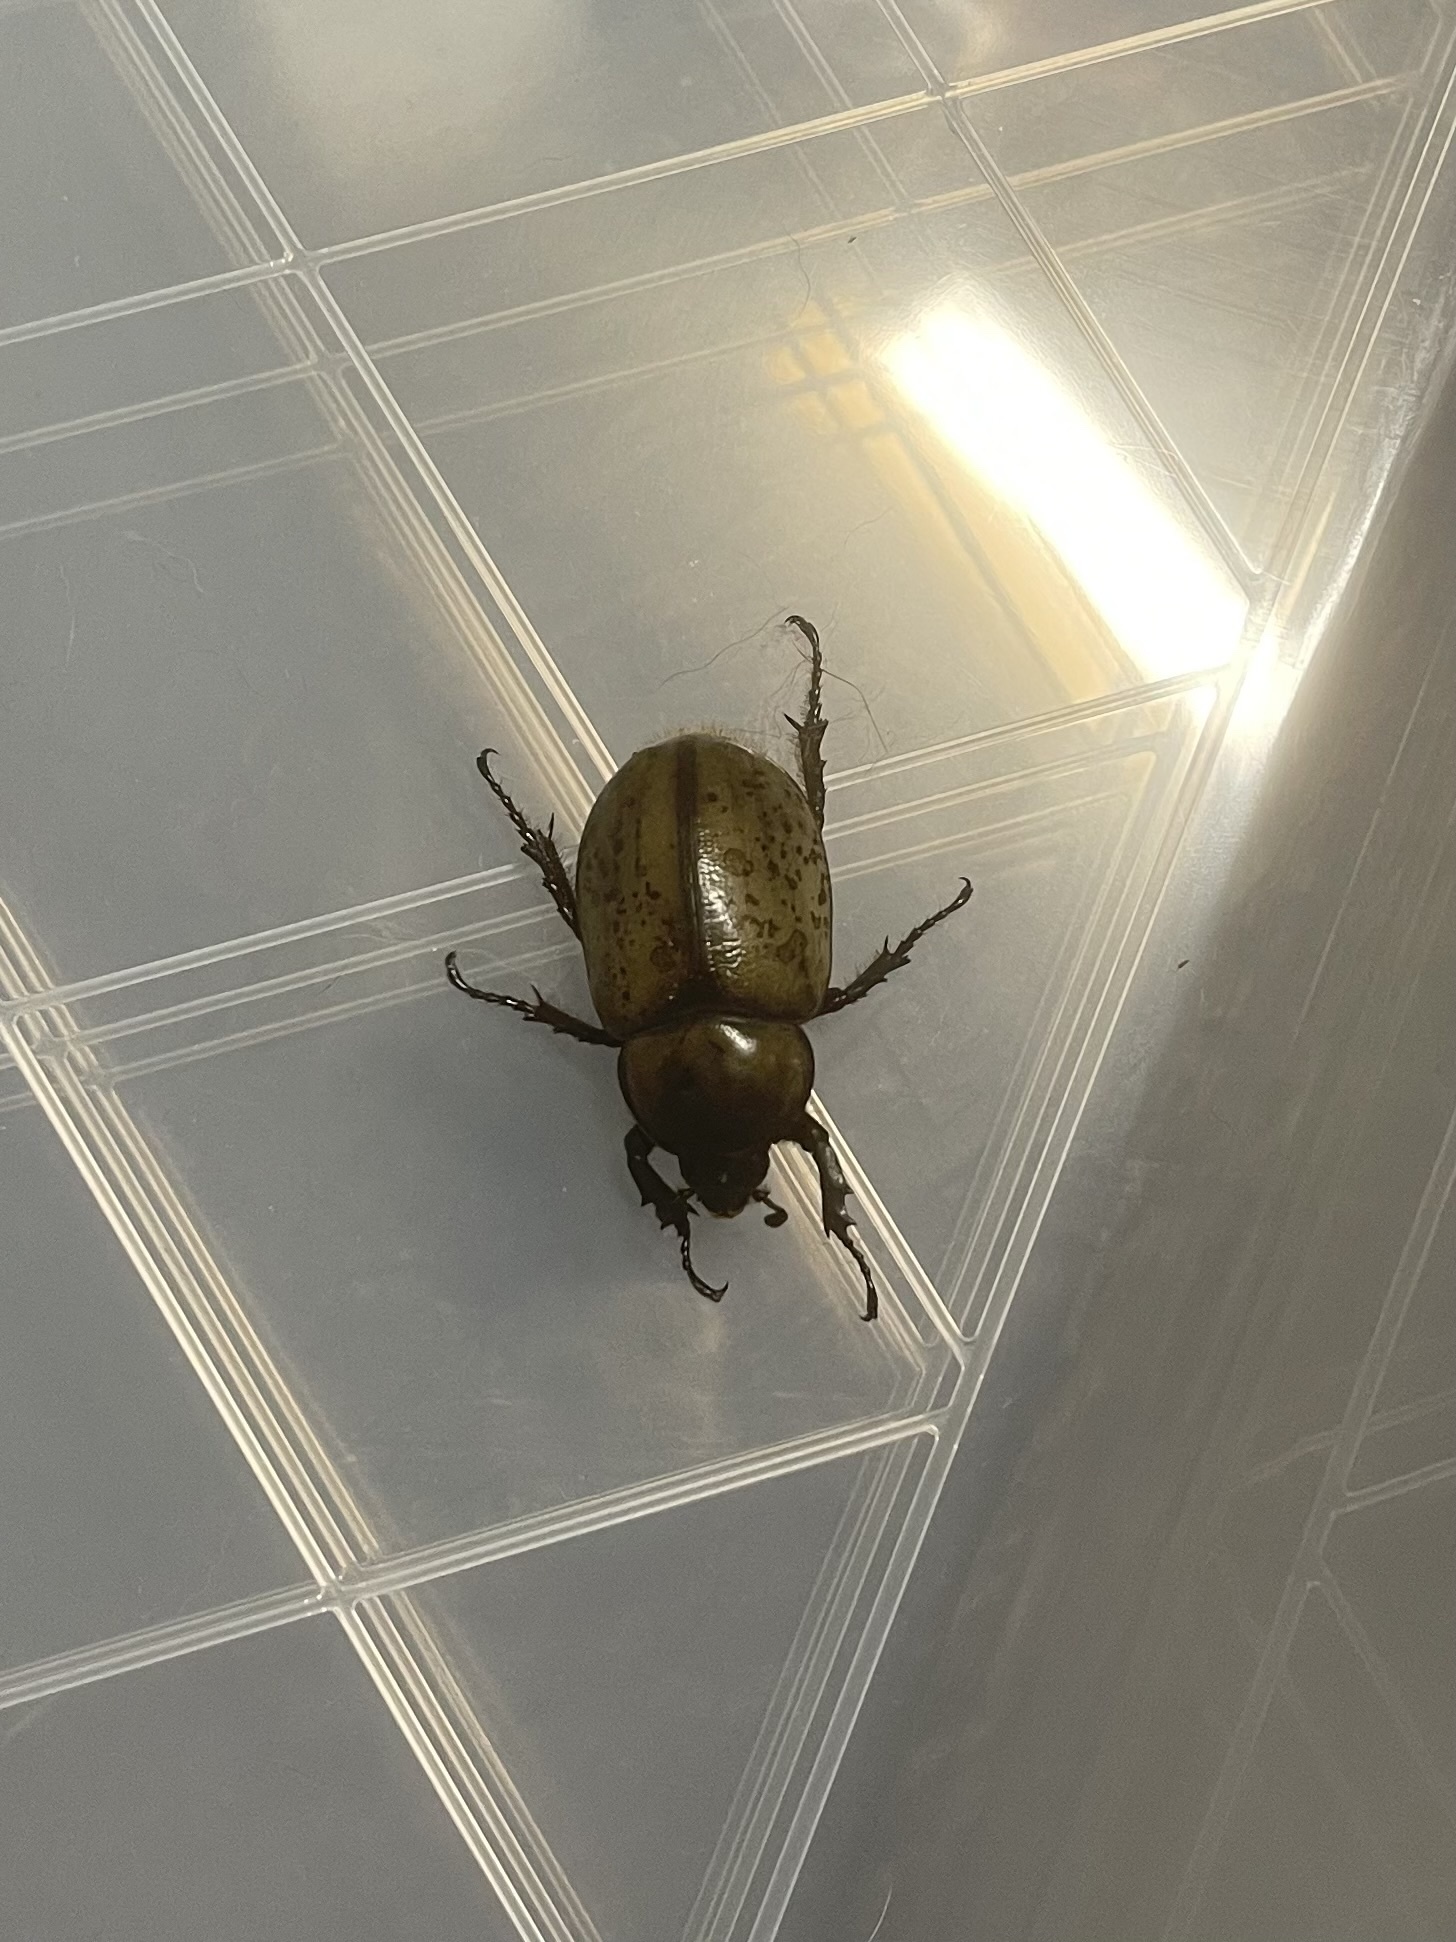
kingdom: Animalia
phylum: Arthropoda
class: Insecta
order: Coleoptera
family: Scarabaeidae
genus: Dynastes
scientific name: Dynastes tityus
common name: Eastern hercules beetle
